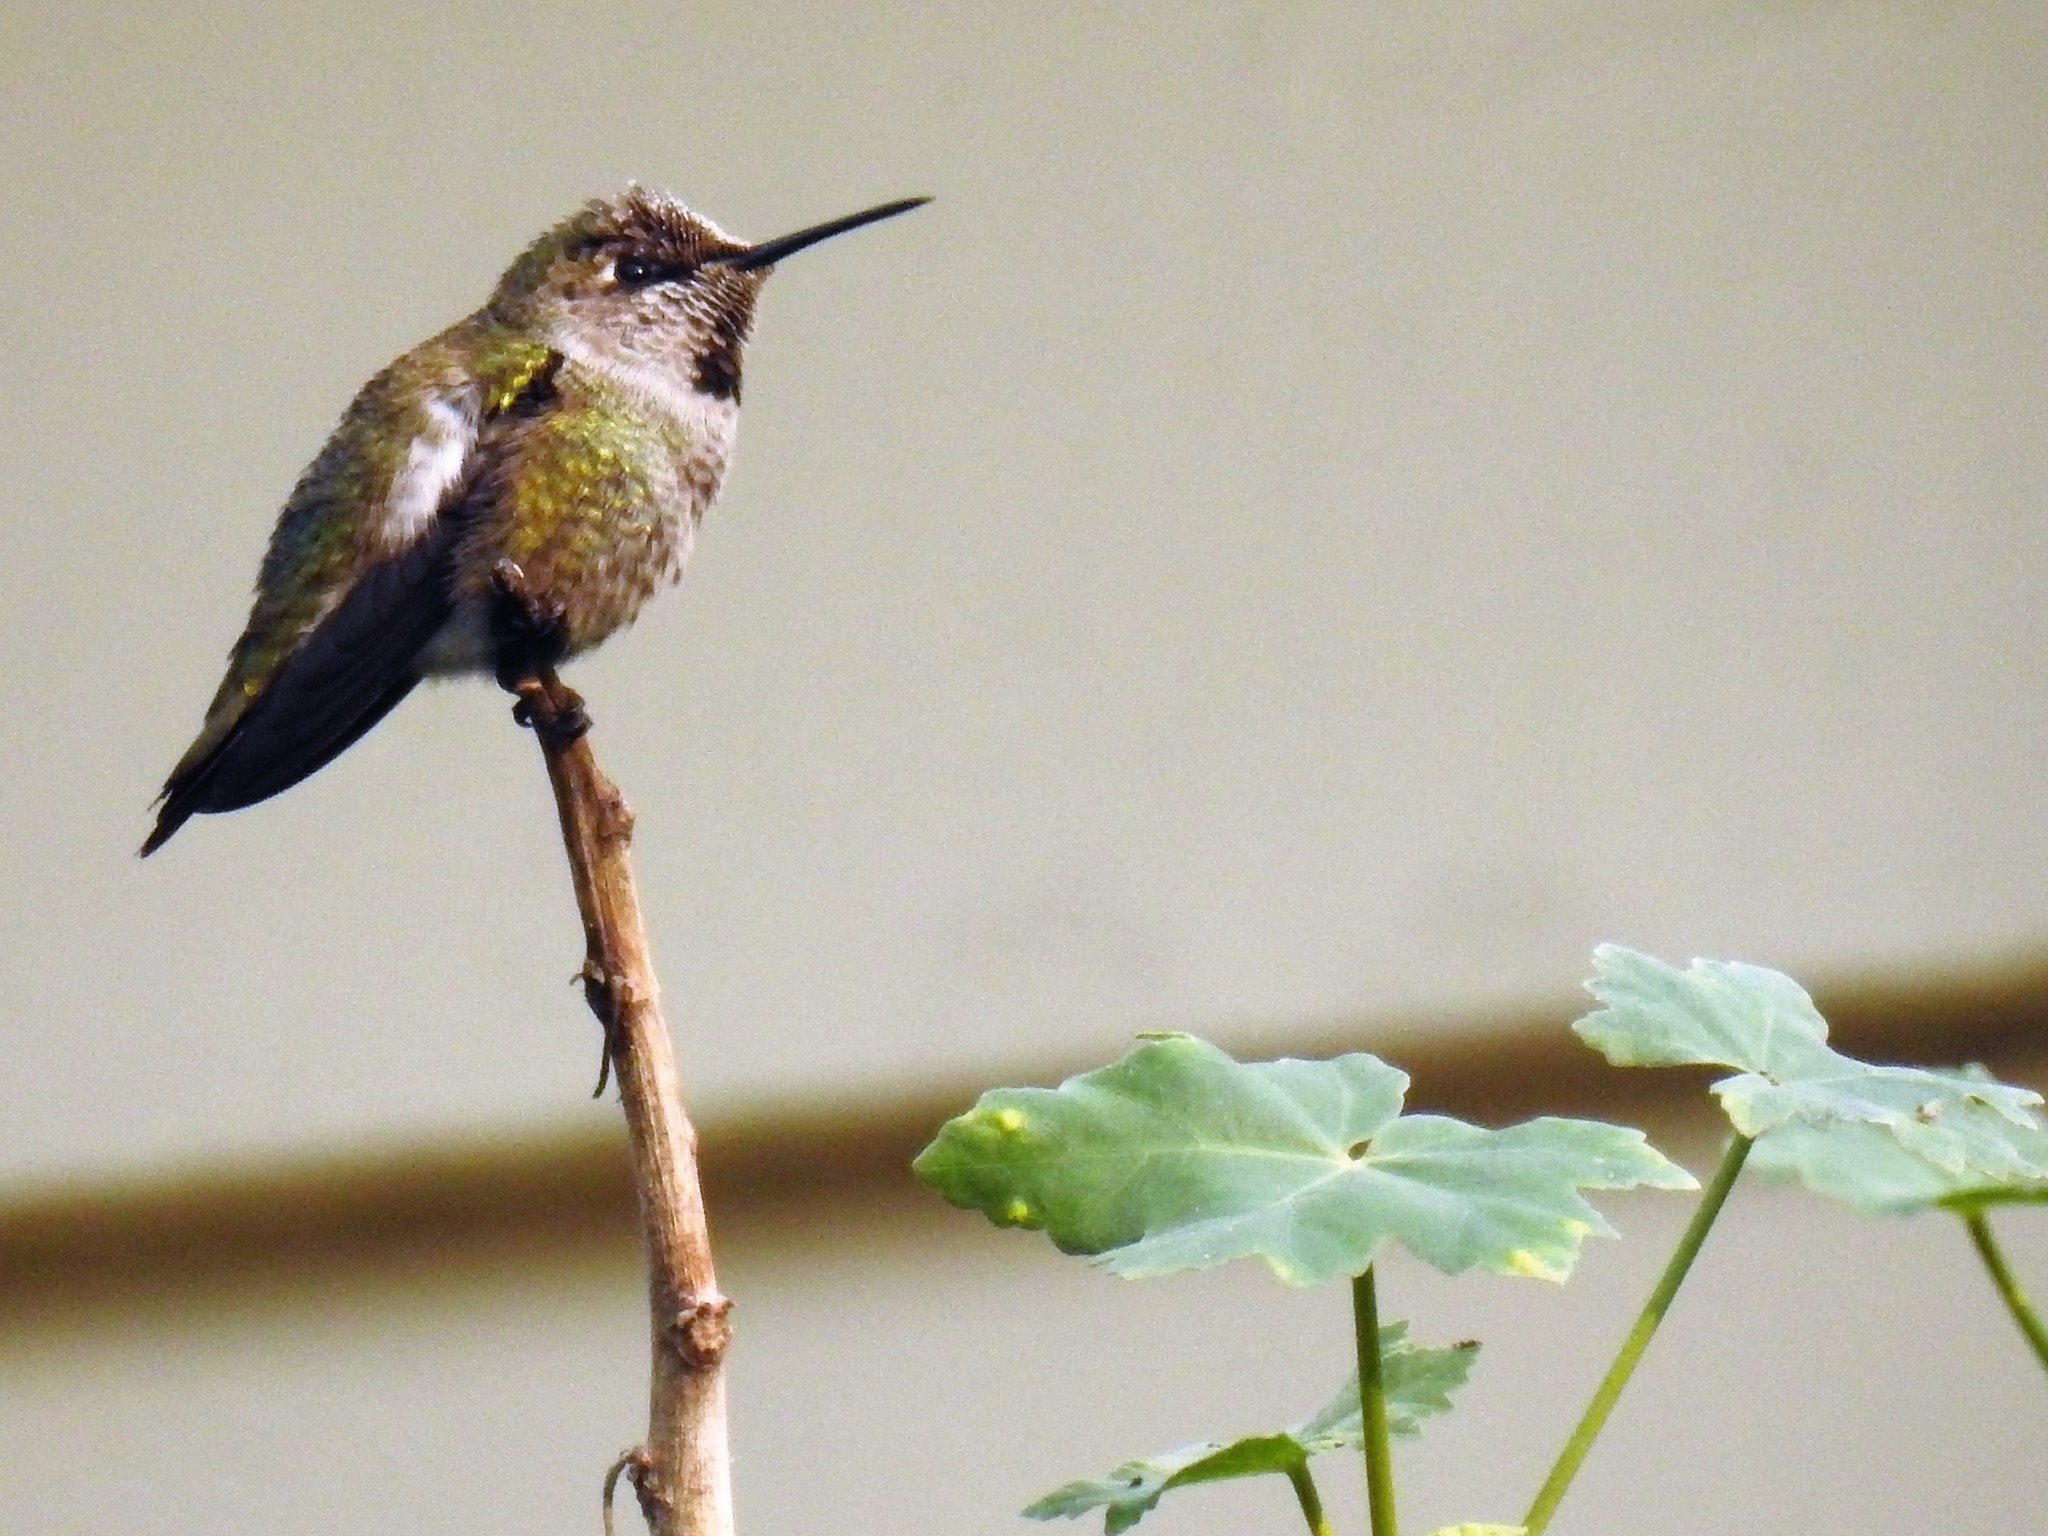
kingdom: Animalia
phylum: Chordata
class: Aves
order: Apodiformes
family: Trochilidae
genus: Calypte
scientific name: Calypte anna
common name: Anna's hummingbird
